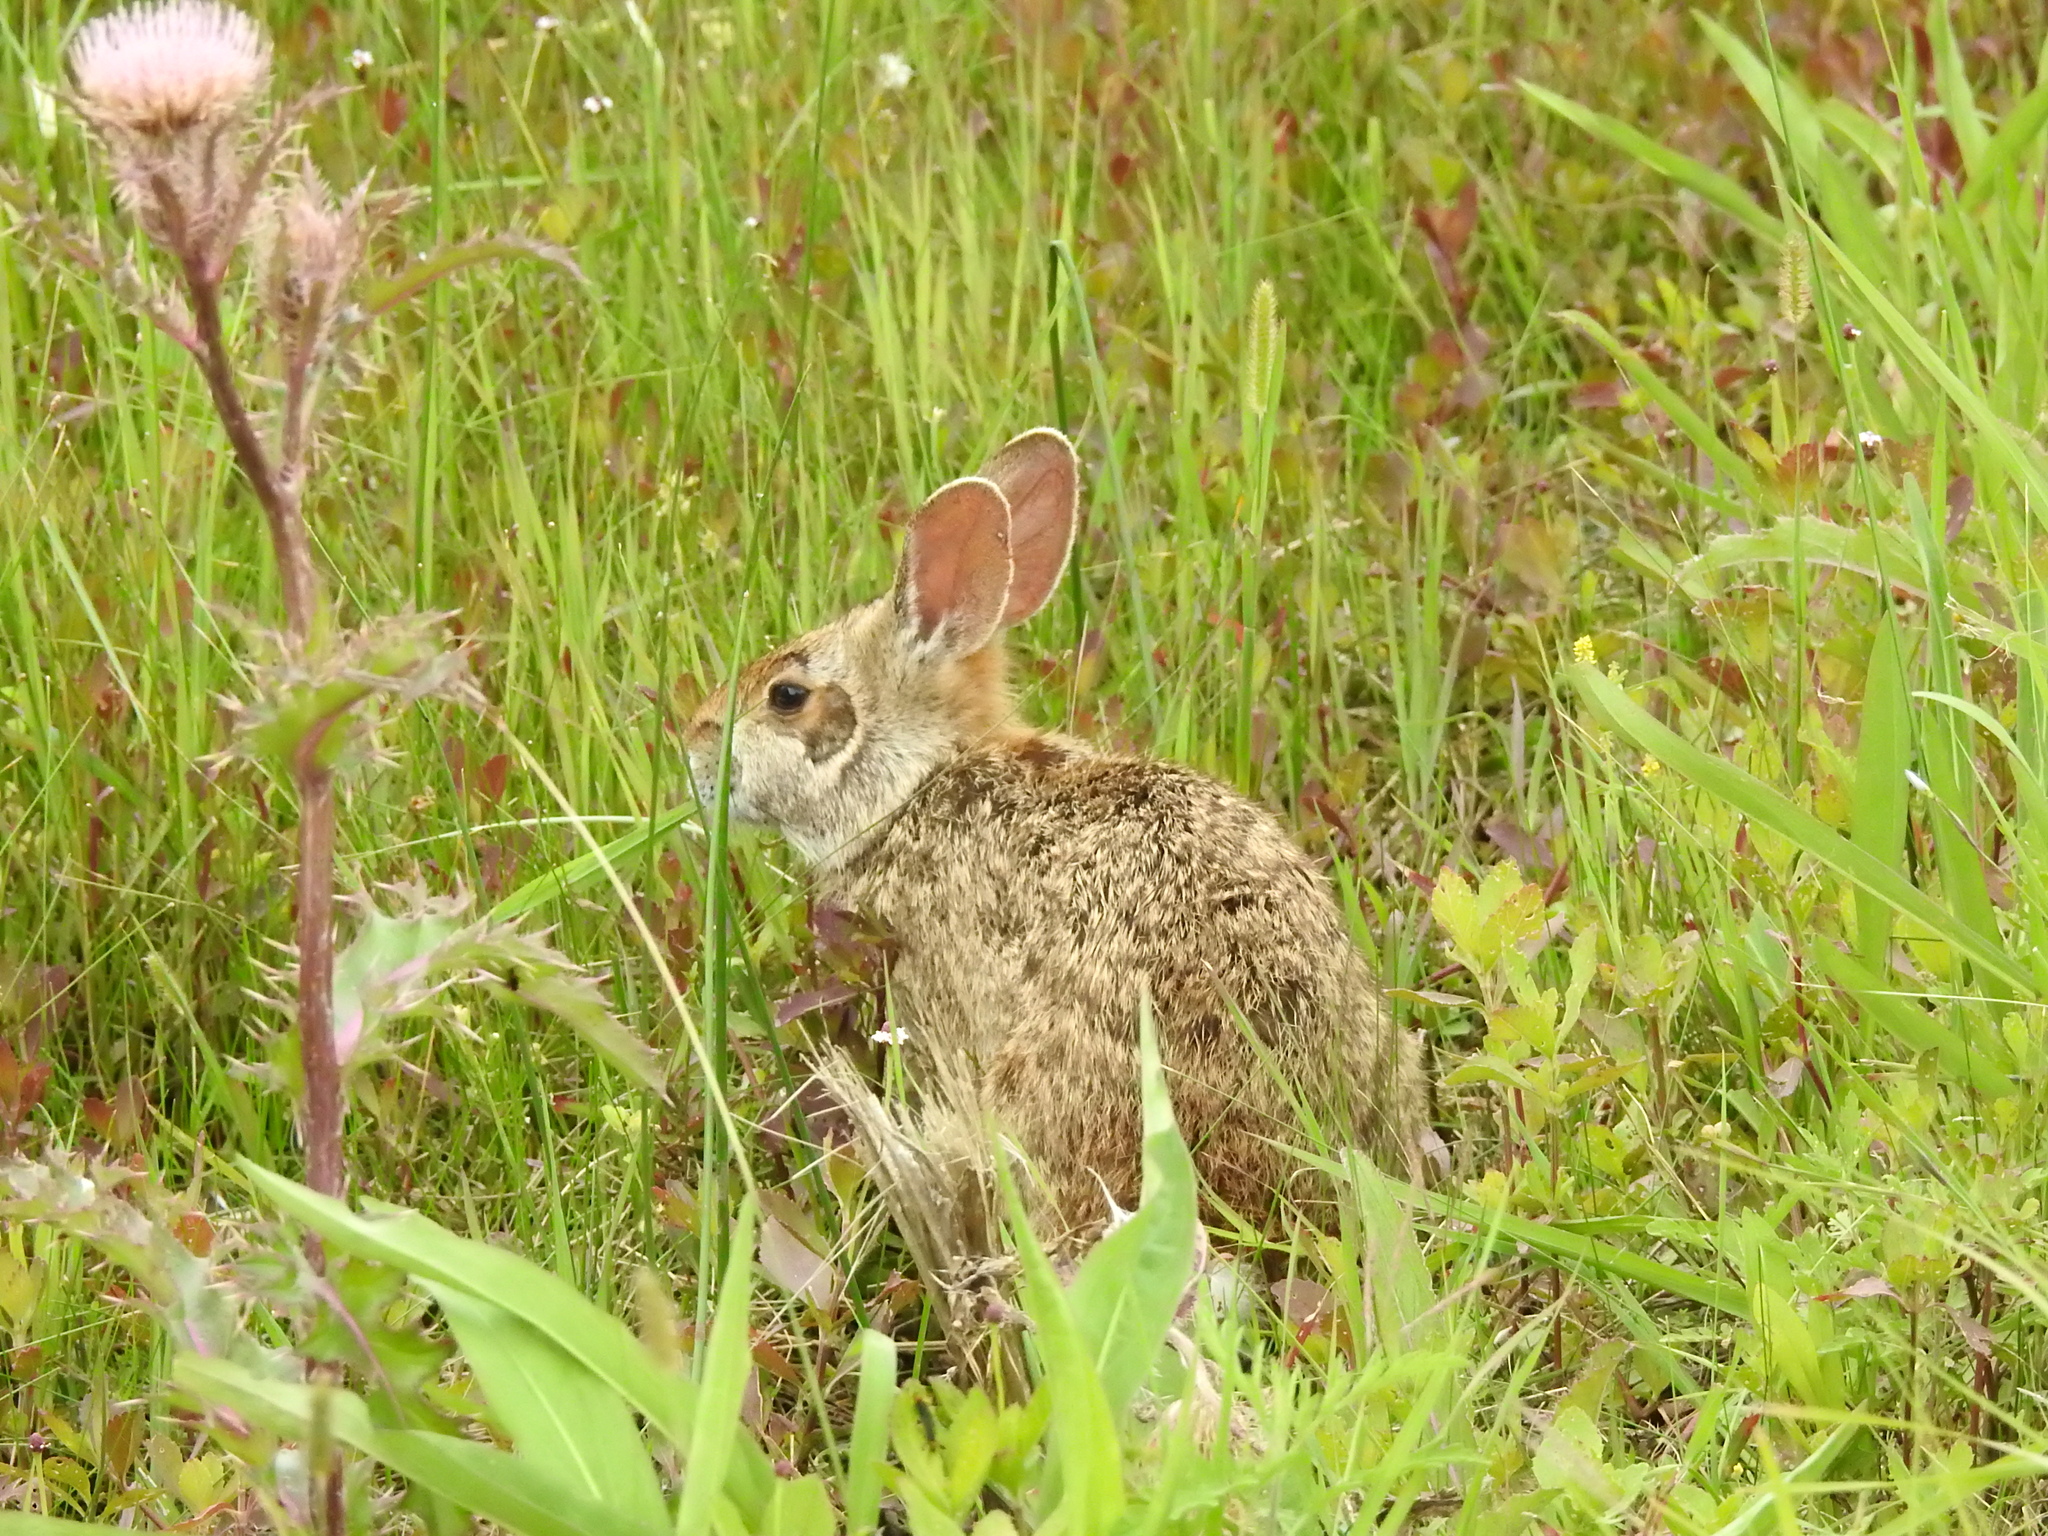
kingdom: Animalia
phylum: Chordata
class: Mammalia
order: Lagomorpha
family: Leporidae
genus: Sylvilagus
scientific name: Sylvilagus aquaticus
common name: Swamp rabbit
